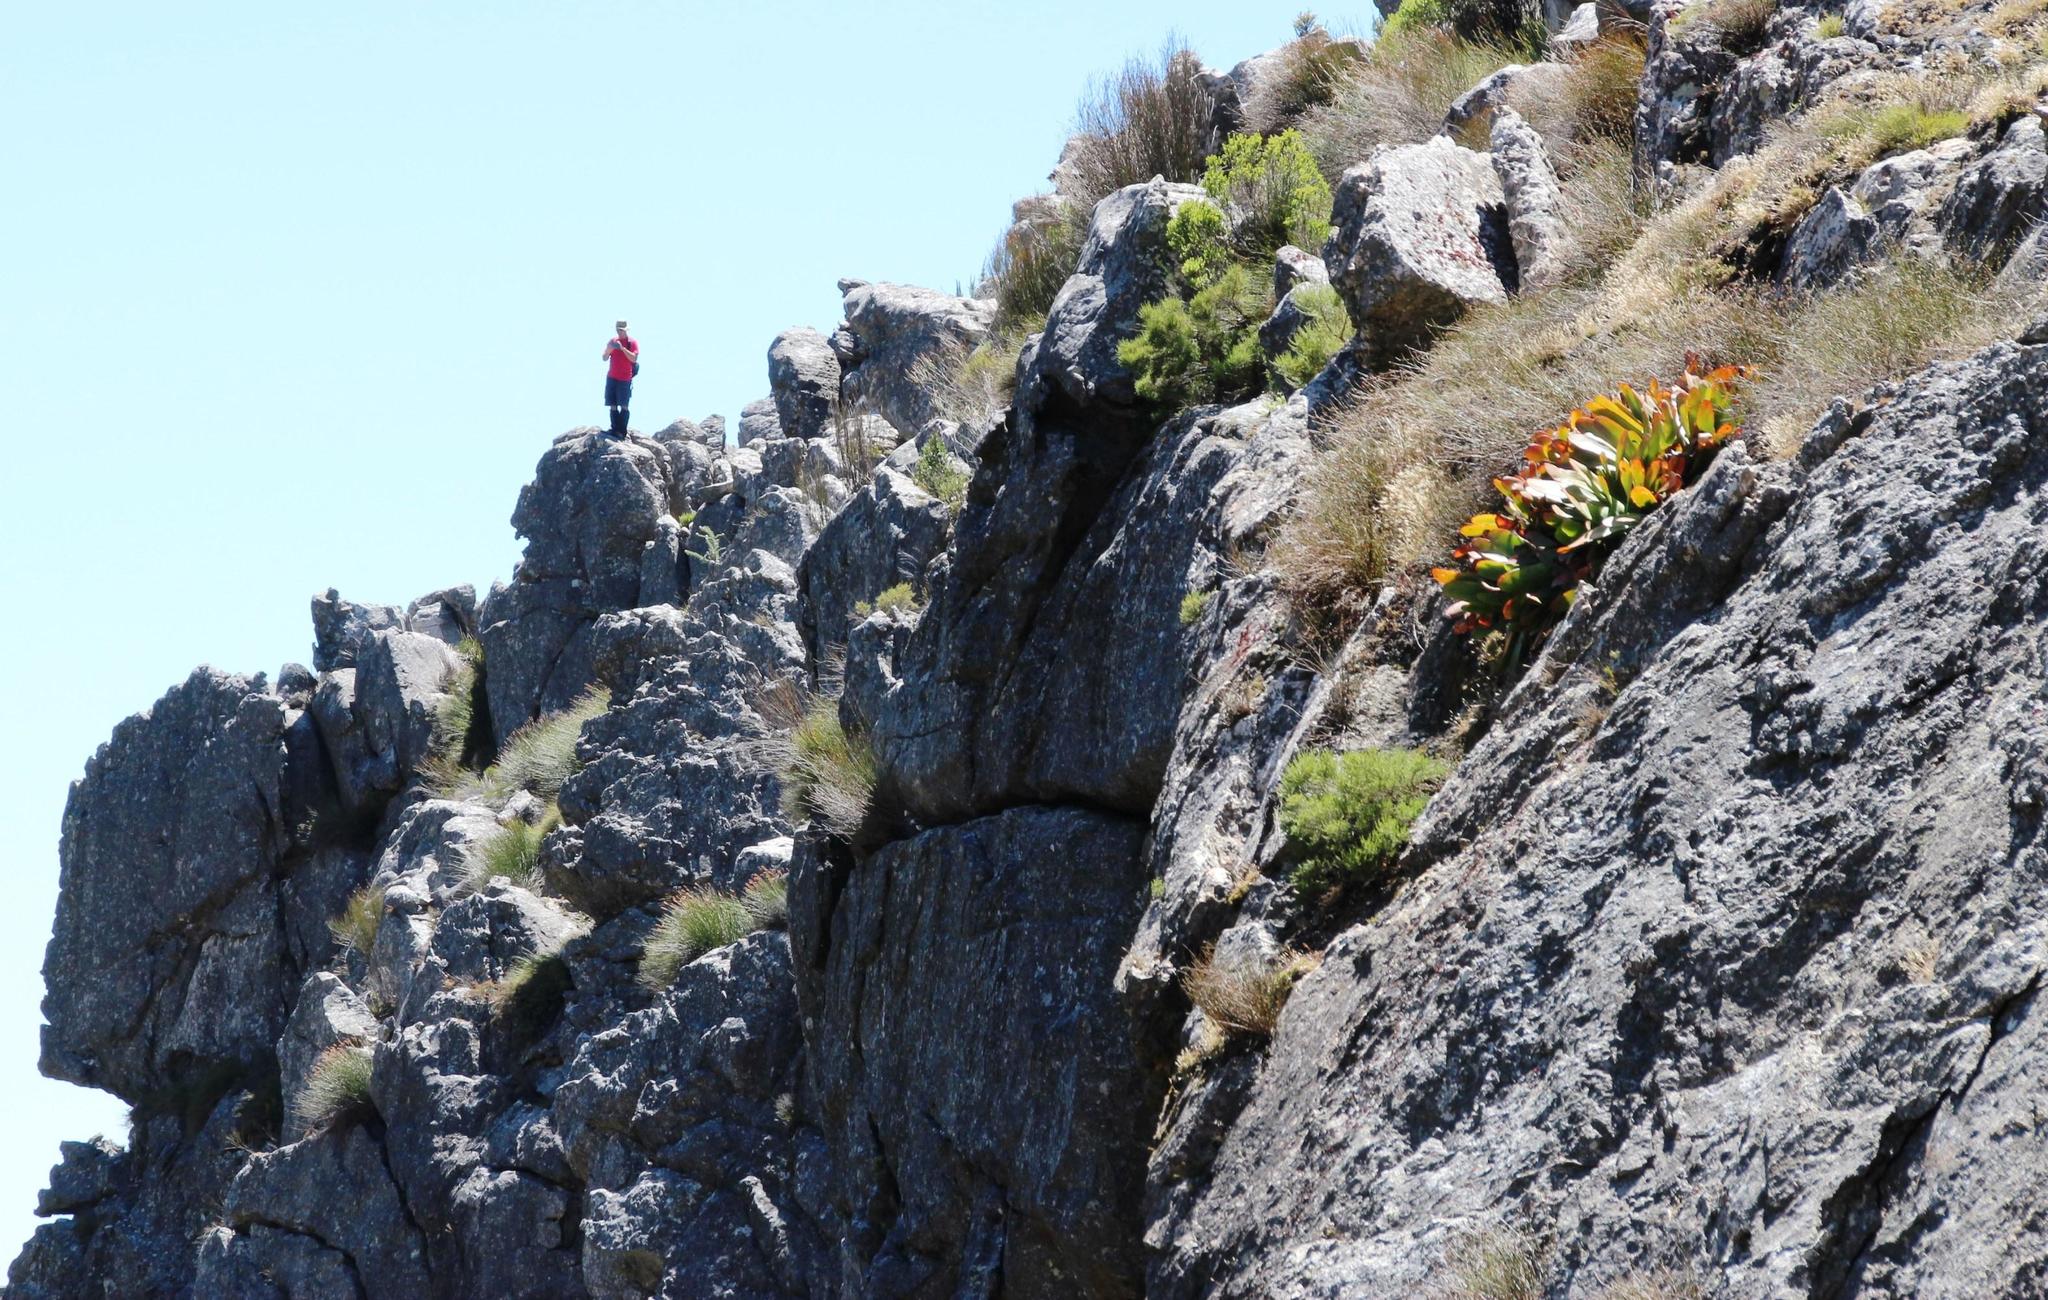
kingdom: Plantae
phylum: Tracheophyta
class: Liliopsida
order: Asparagales
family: Asphodelaceae
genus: Kumara
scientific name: Kumara haemanthifolia
